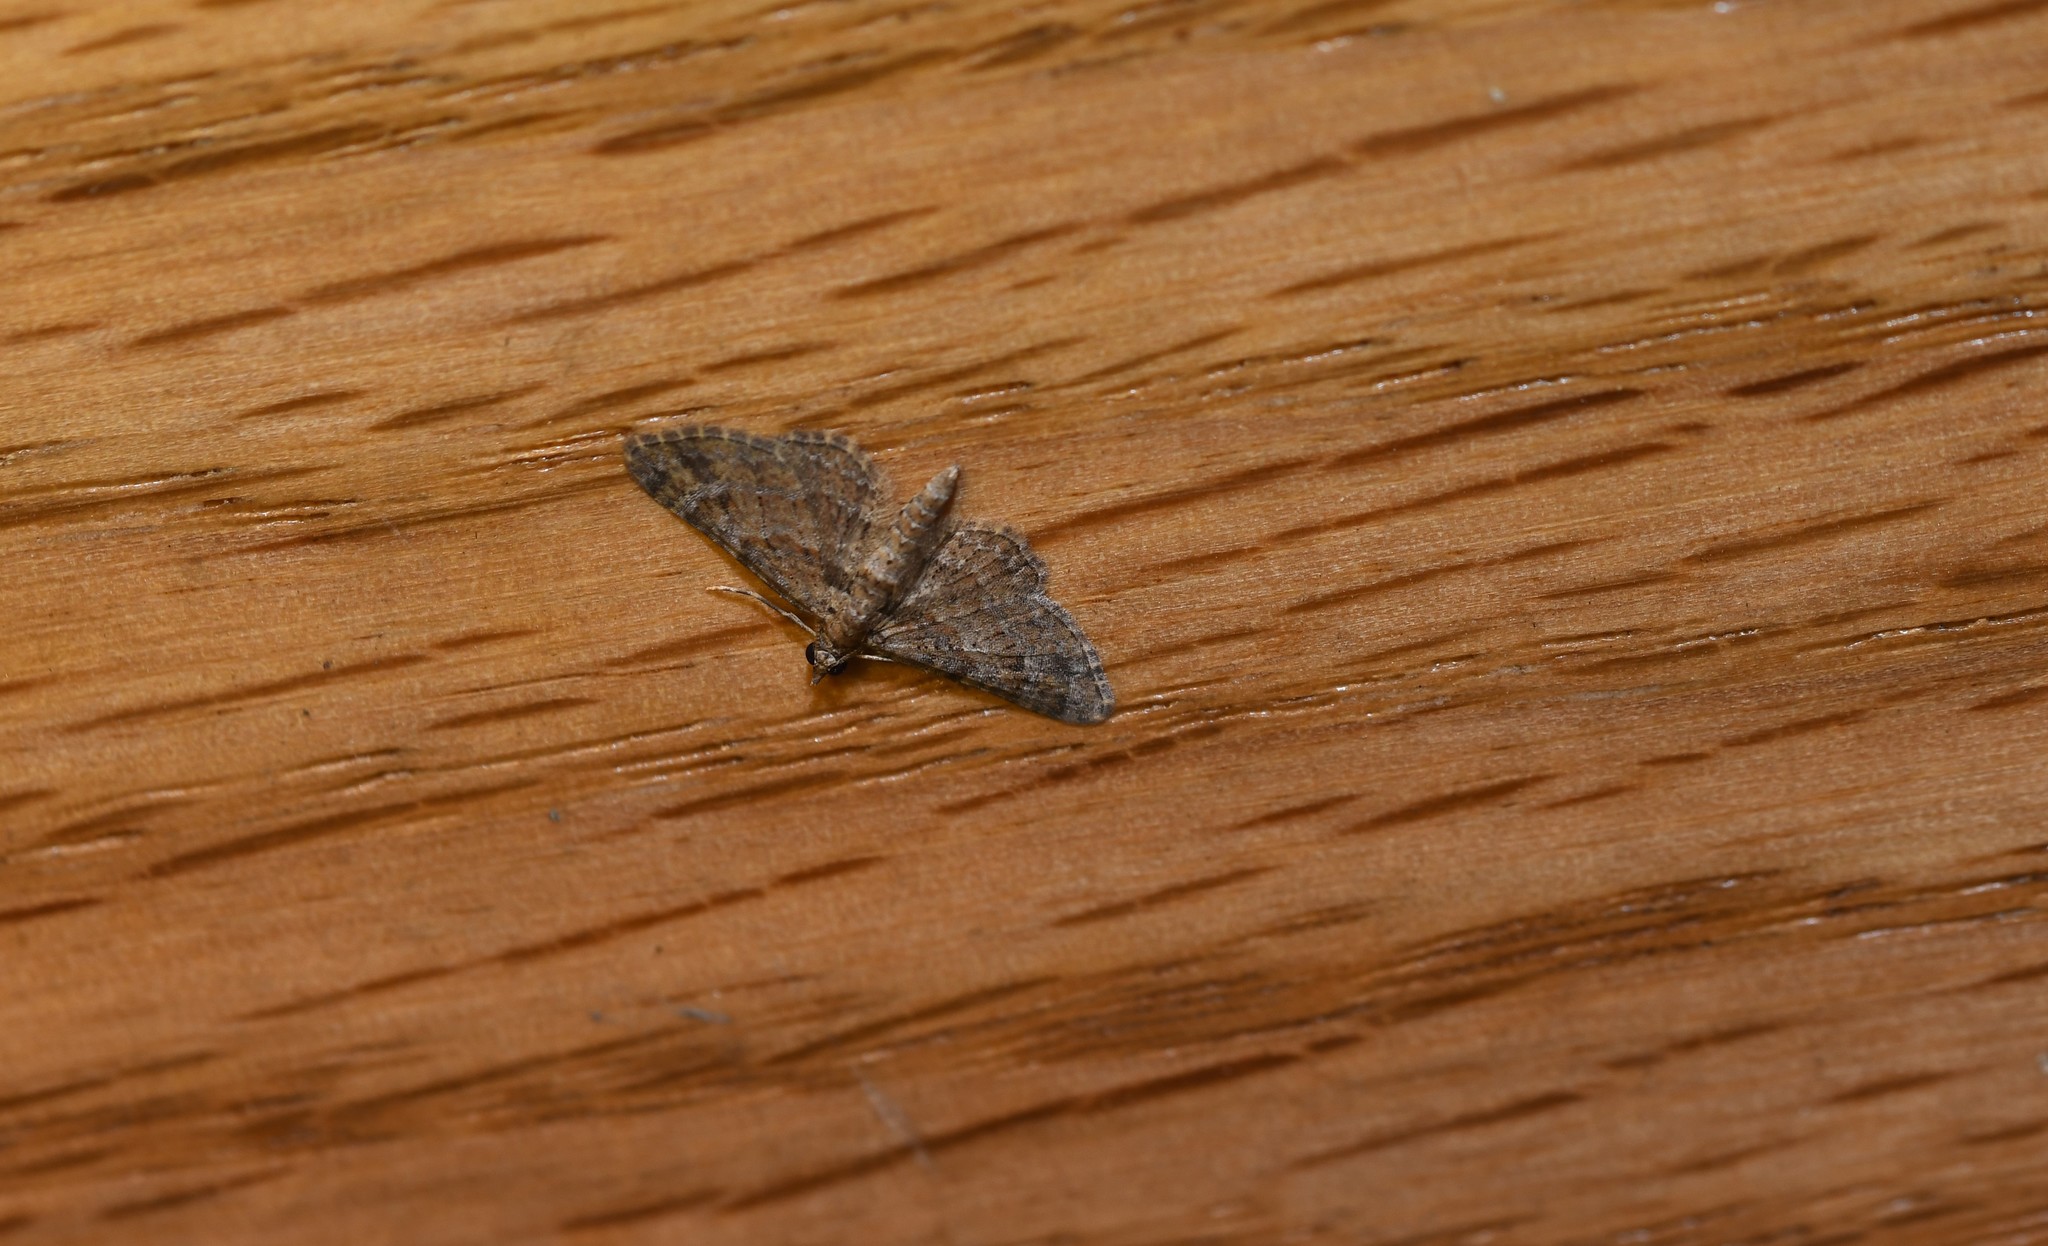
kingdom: Animalia
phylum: Arthropoda
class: Insecta
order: Lepidoptera
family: Geometridae
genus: Gymnoscelis
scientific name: Gymnoscelis rufifasciata
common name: Double-striped pug
